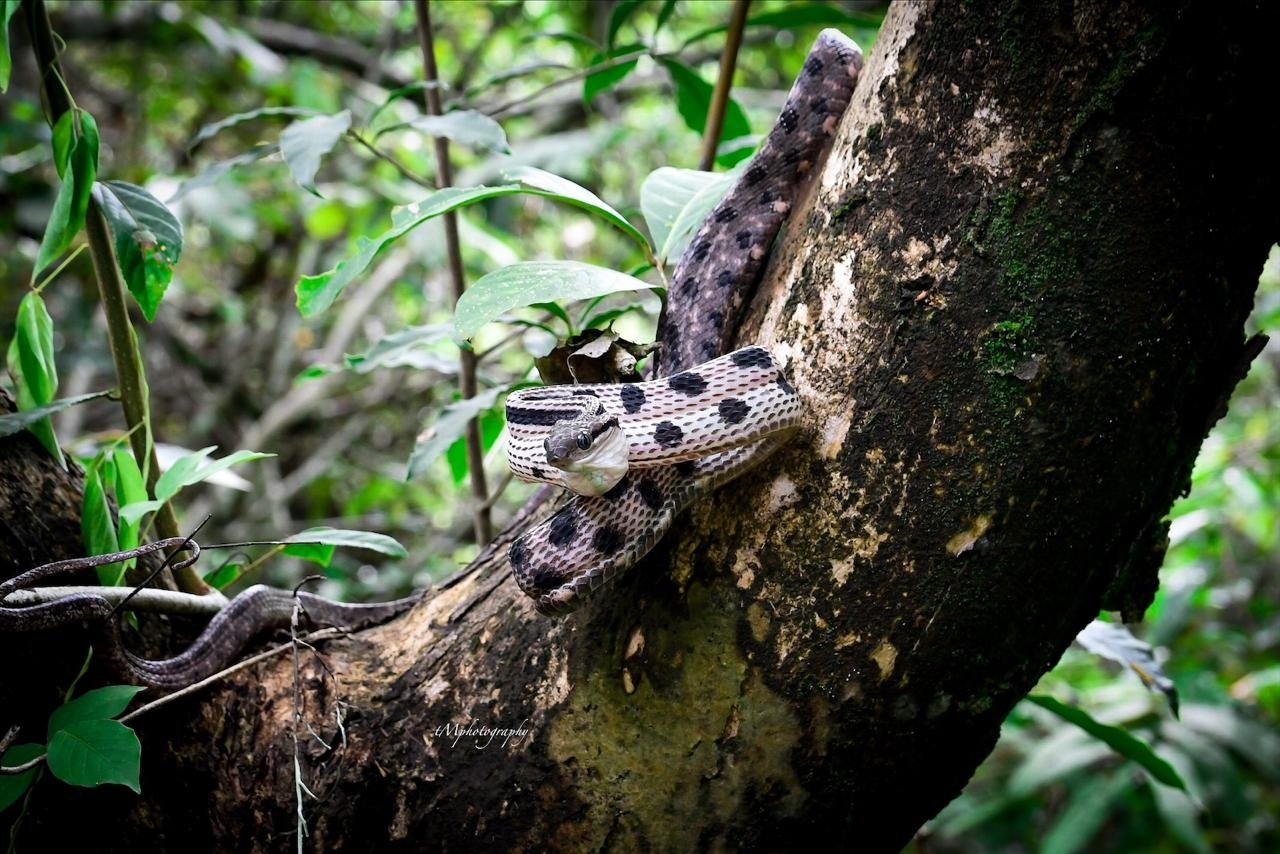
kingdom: Animalia
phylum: Chordata
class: Squamata
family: Colubridae
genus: Boiga
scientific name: Boiga siamensis
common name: Eyed cat snake
